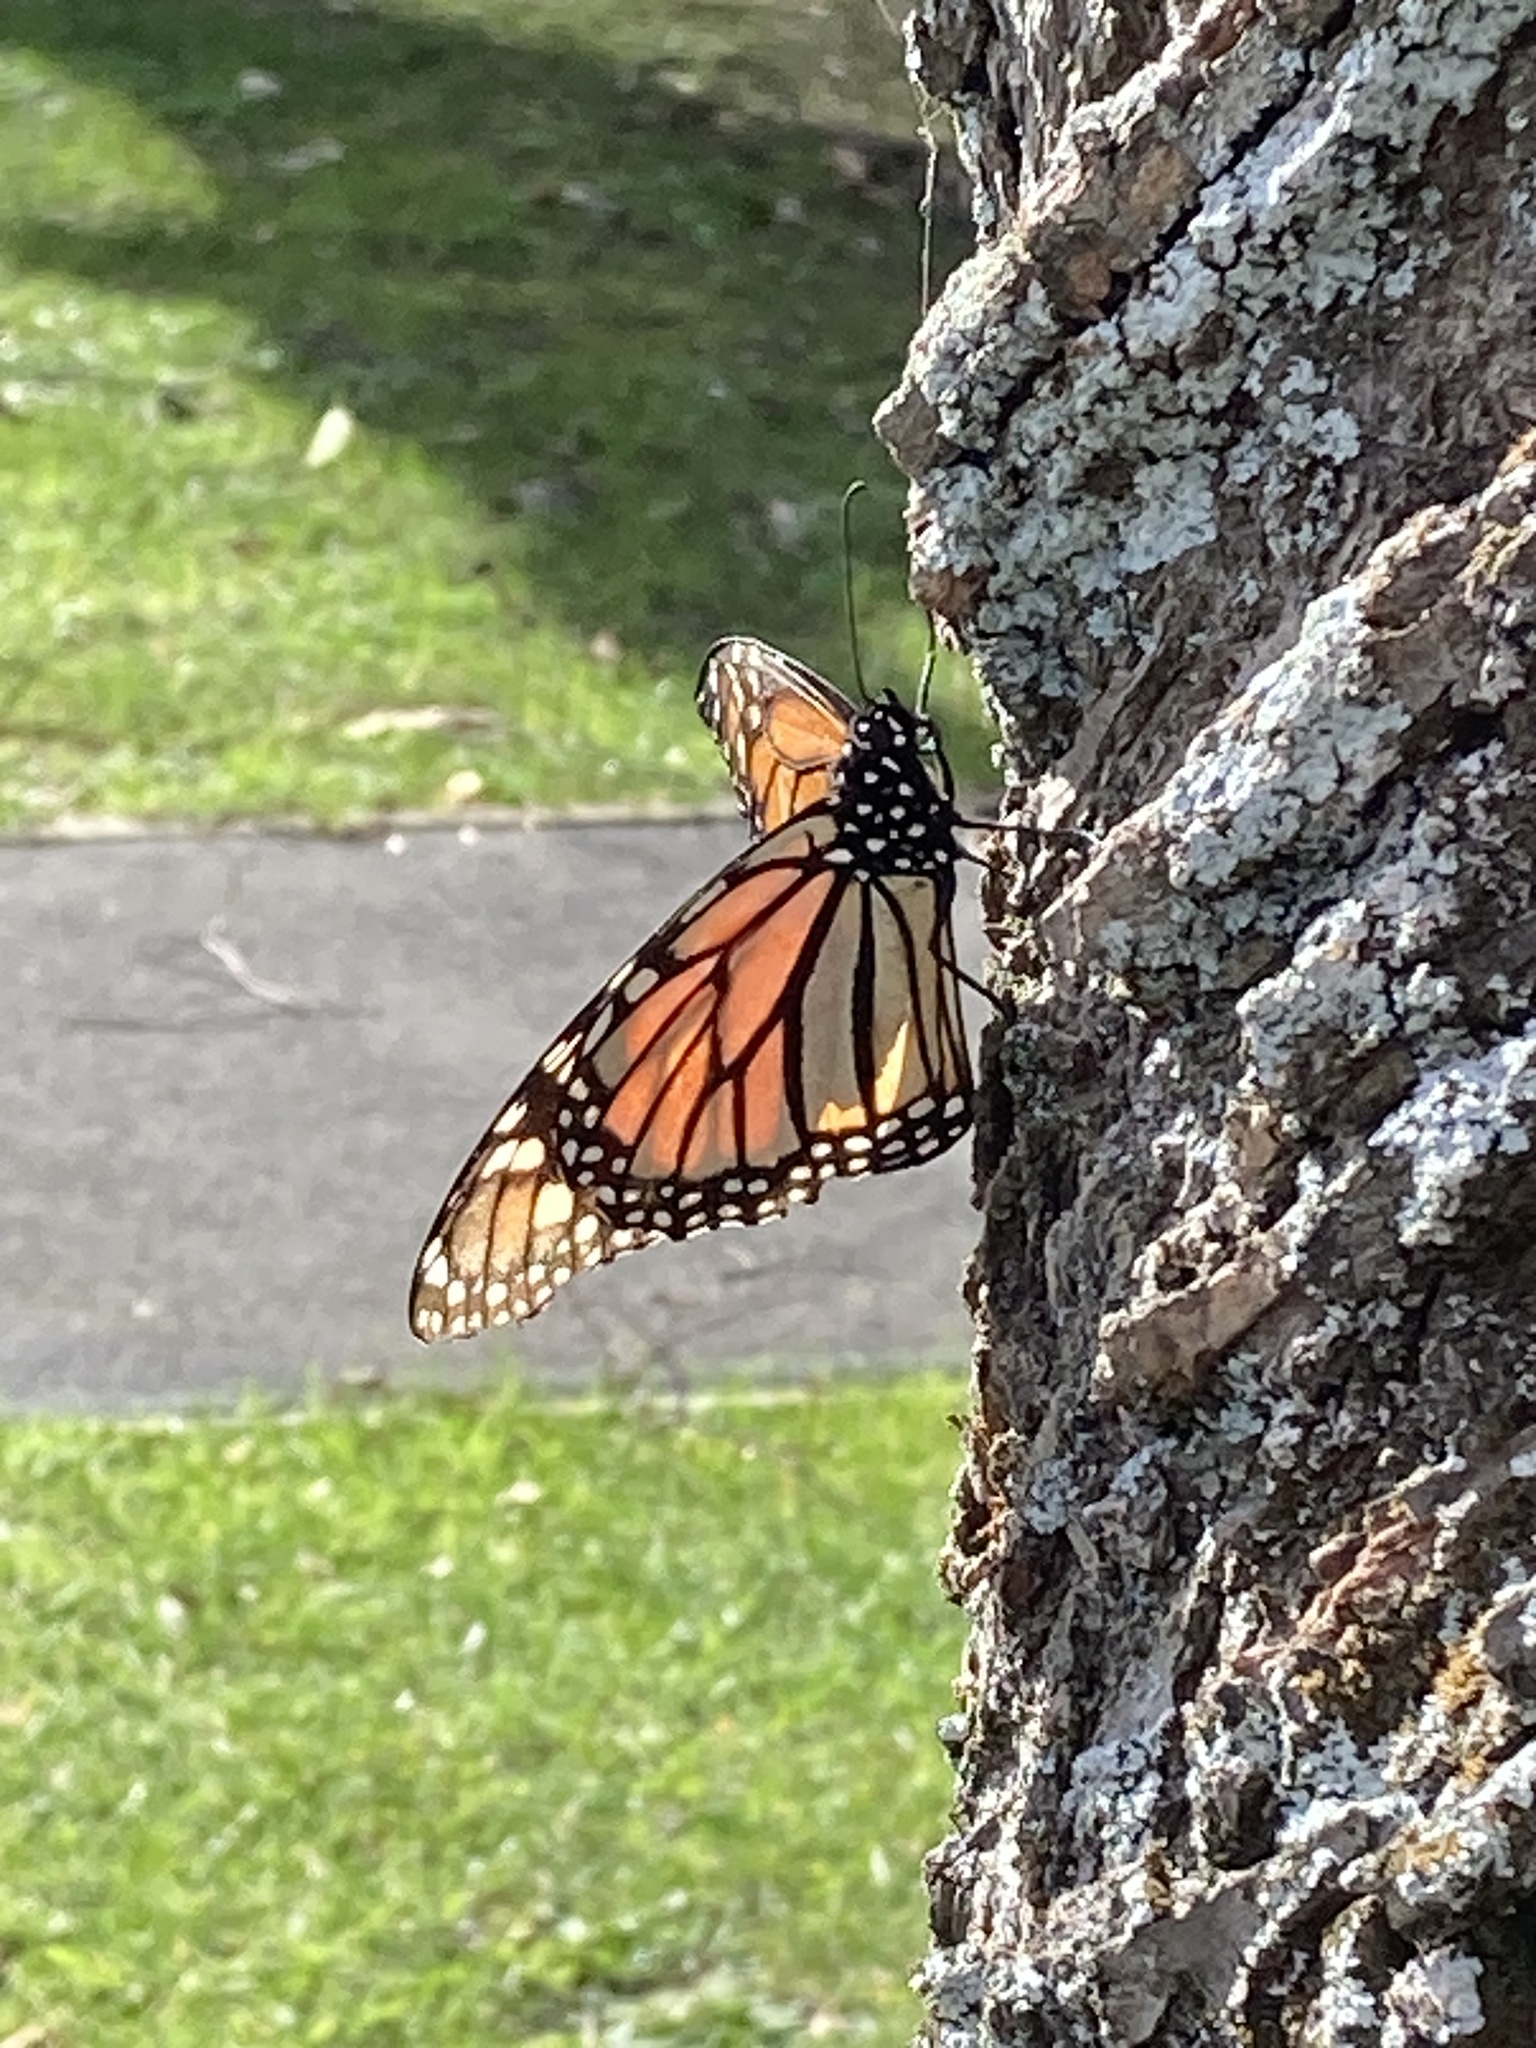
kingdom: Animalia
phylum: Arthropoda
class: Insecta
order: Lepidoptera
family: Nymphalidae
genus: Danaus
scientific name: Danaus plexippus
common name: Monarch
